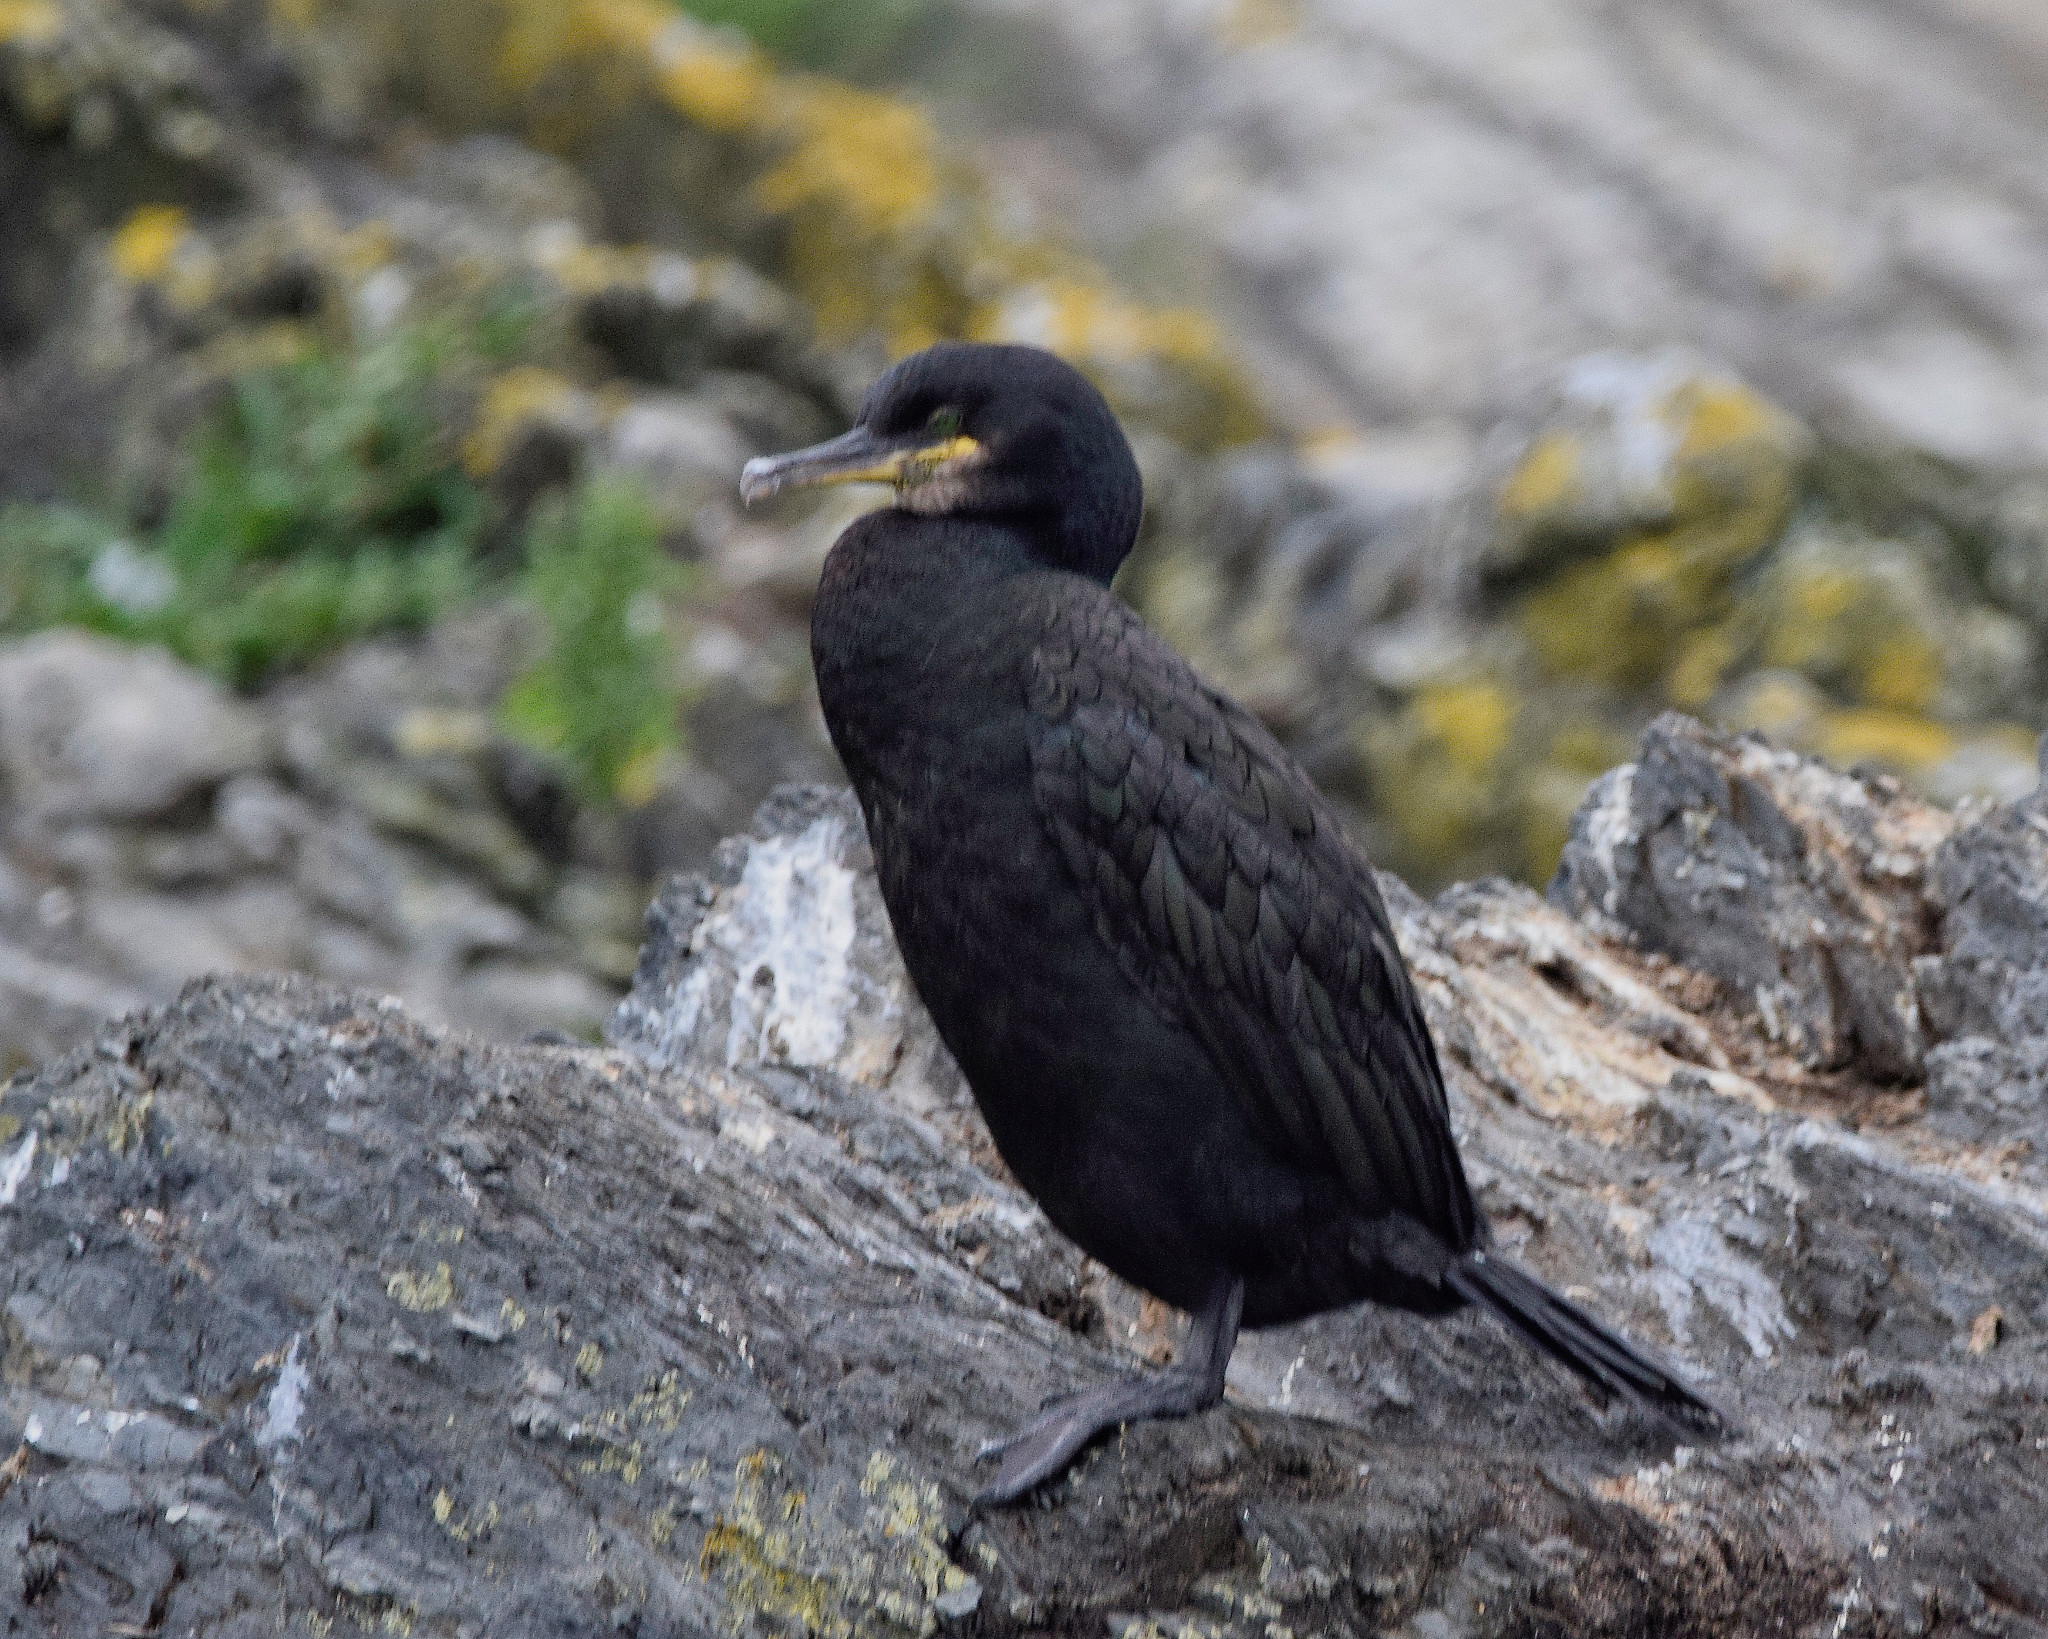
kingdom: Animalia
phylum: Chordata
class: Aves
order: Suliformes
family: Phalacrocoracidae
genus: Phalacrocorax
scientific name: Phalacrocorax aristotelis
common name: European shag
